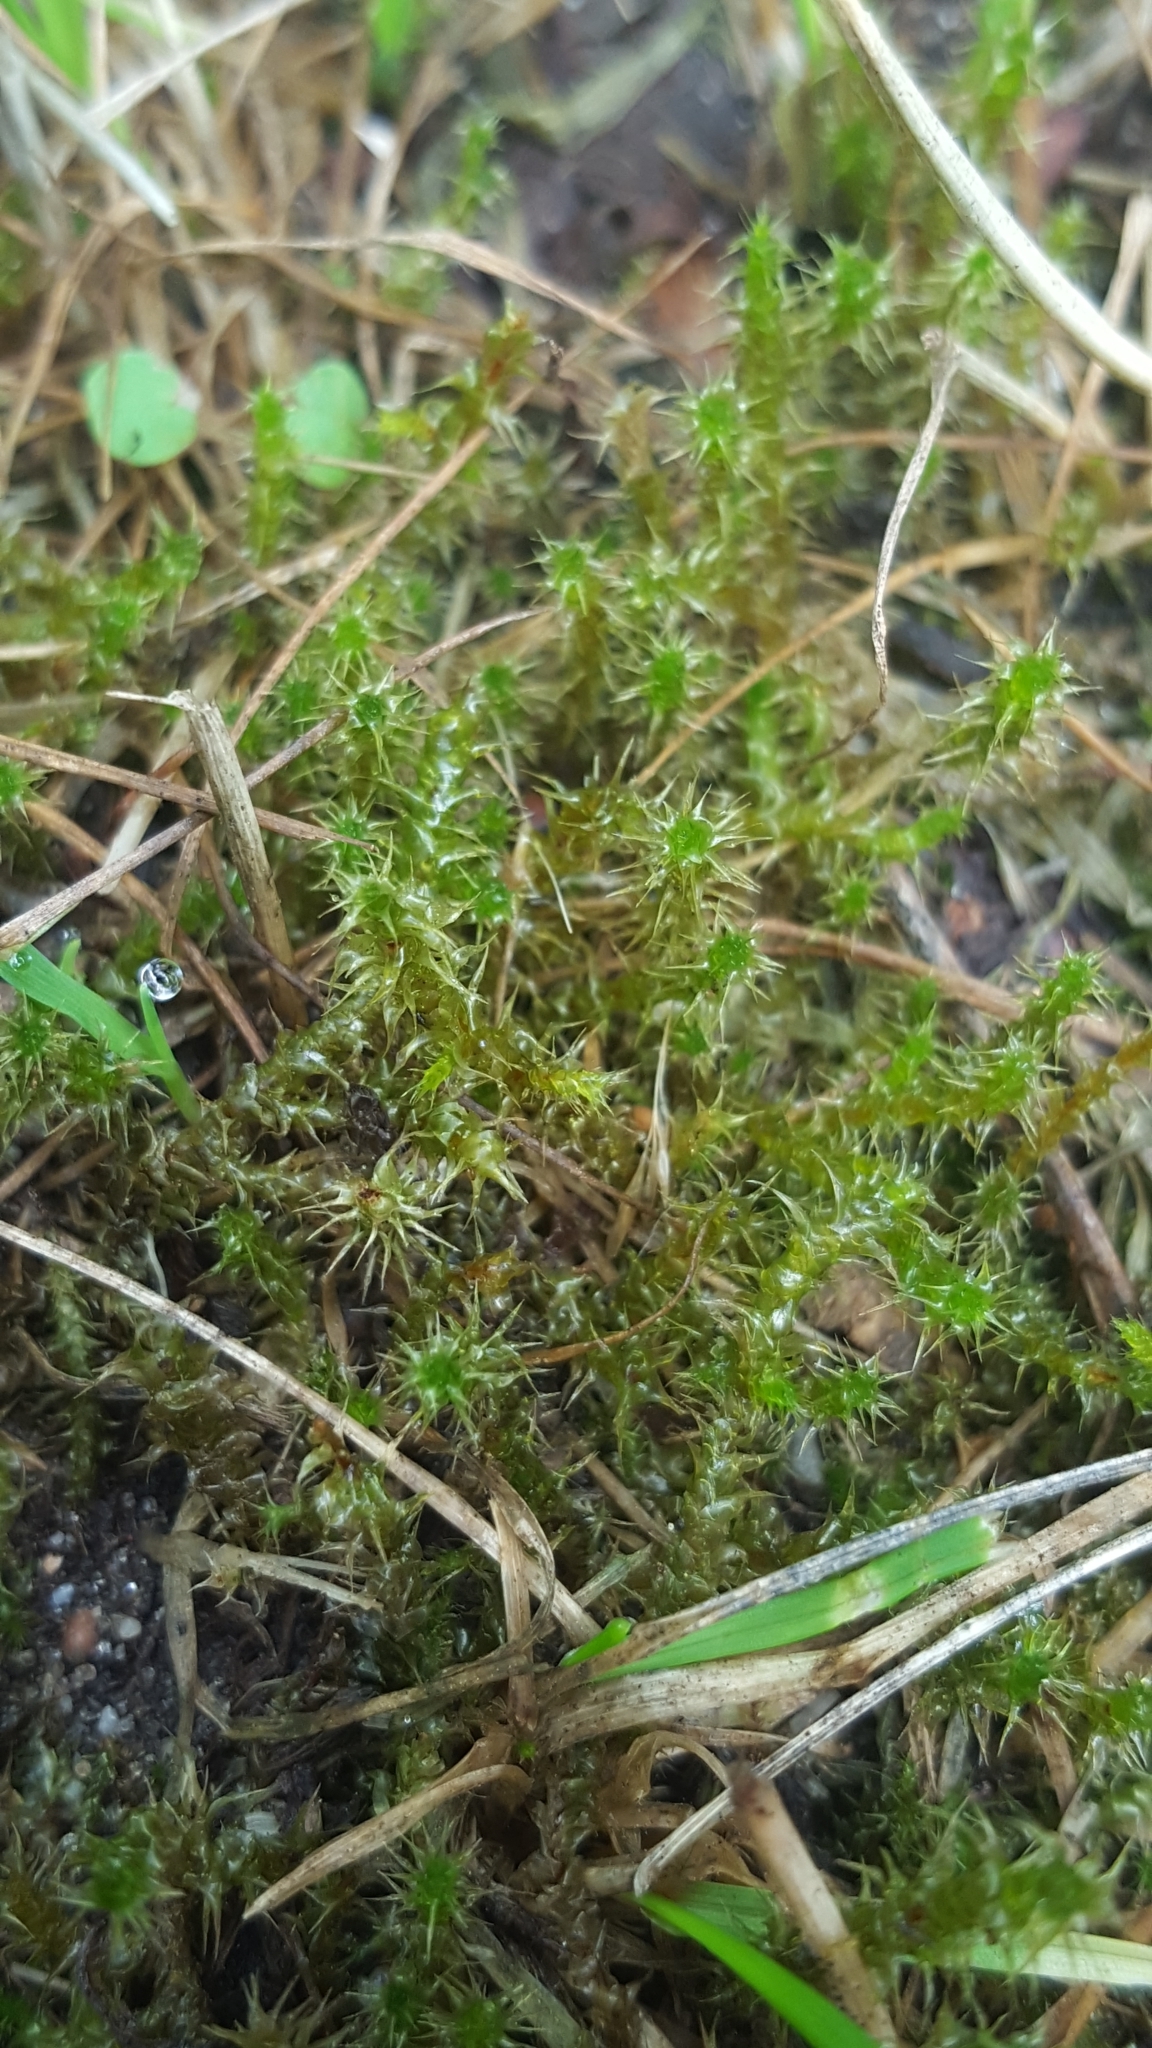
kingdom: Plantae
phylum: Bryophyta
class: Bryopsida
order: Hypnales
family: Hylocomiaceae
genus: Rhytidiadelphus
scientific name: Rhytidiadelphus squarrosus
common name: Springy turf-moss
